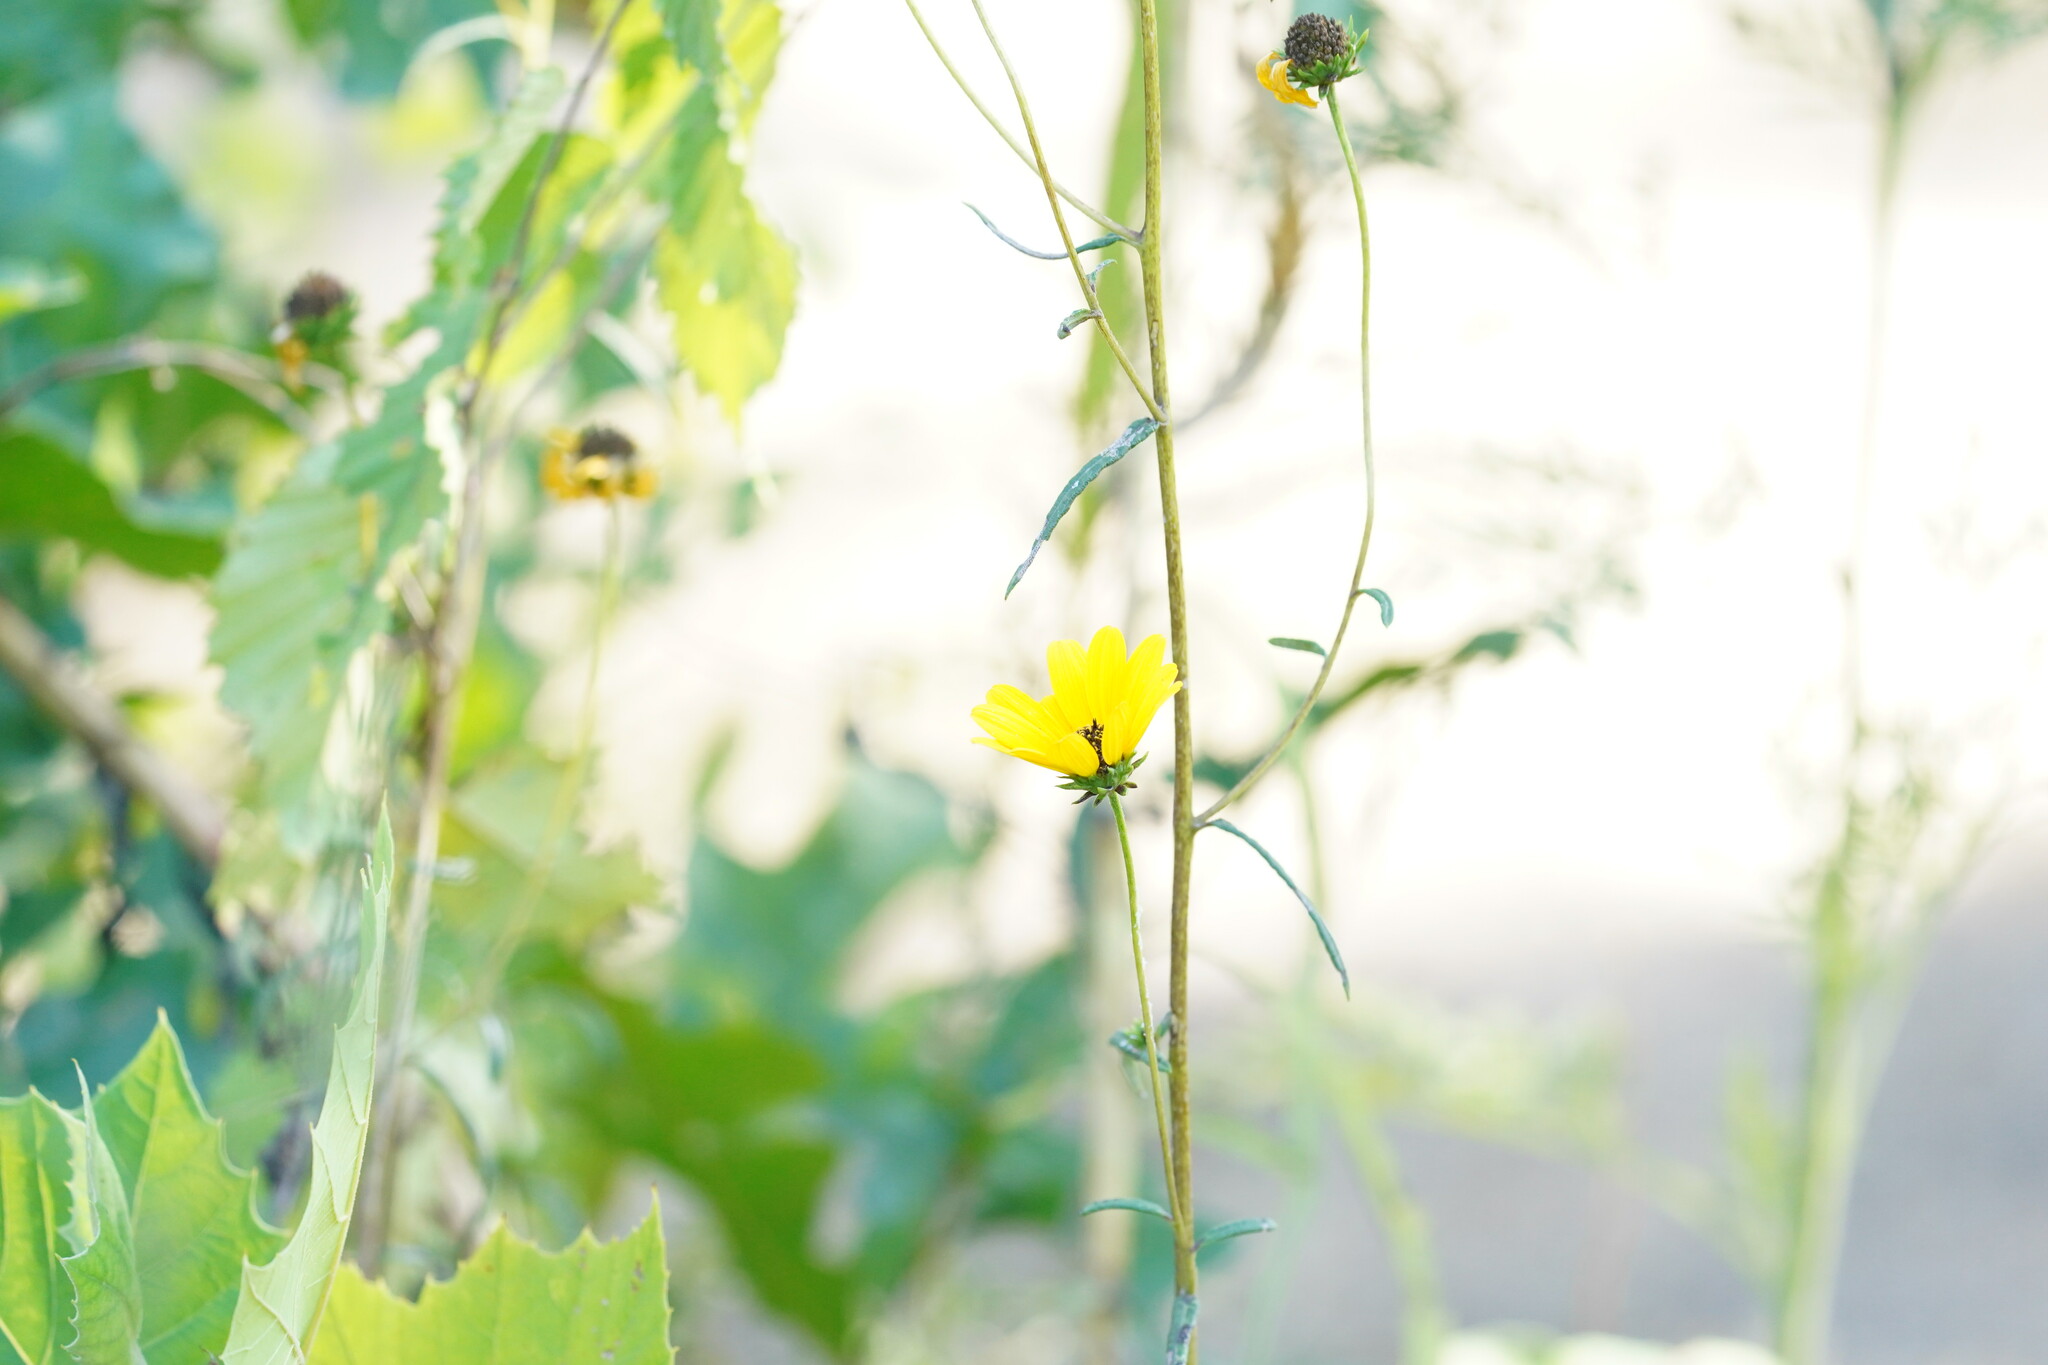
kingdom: Plantae
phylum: Tracheophyta
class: Magnoliopsida
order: Asterales
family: Asteraceae
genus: Helianthus
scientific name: Helianthus angustifolius
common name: Swamp sunflower
